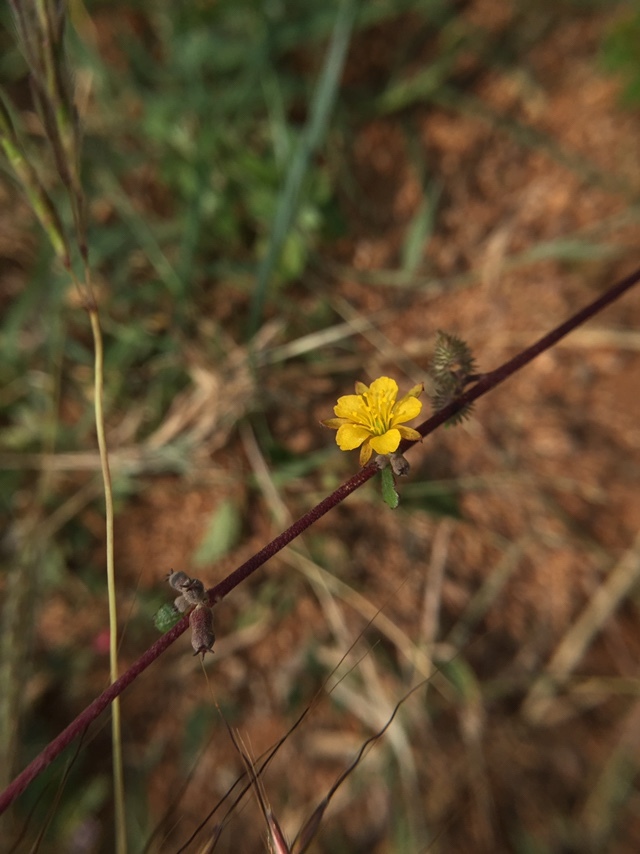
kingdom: Plantae
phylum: Tracheophyta
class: Magnoliopsida
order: Malvales
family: Malvaceae
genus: Triumfetta
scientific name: Triumfetta rhomboidea
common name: Diamond burbark
